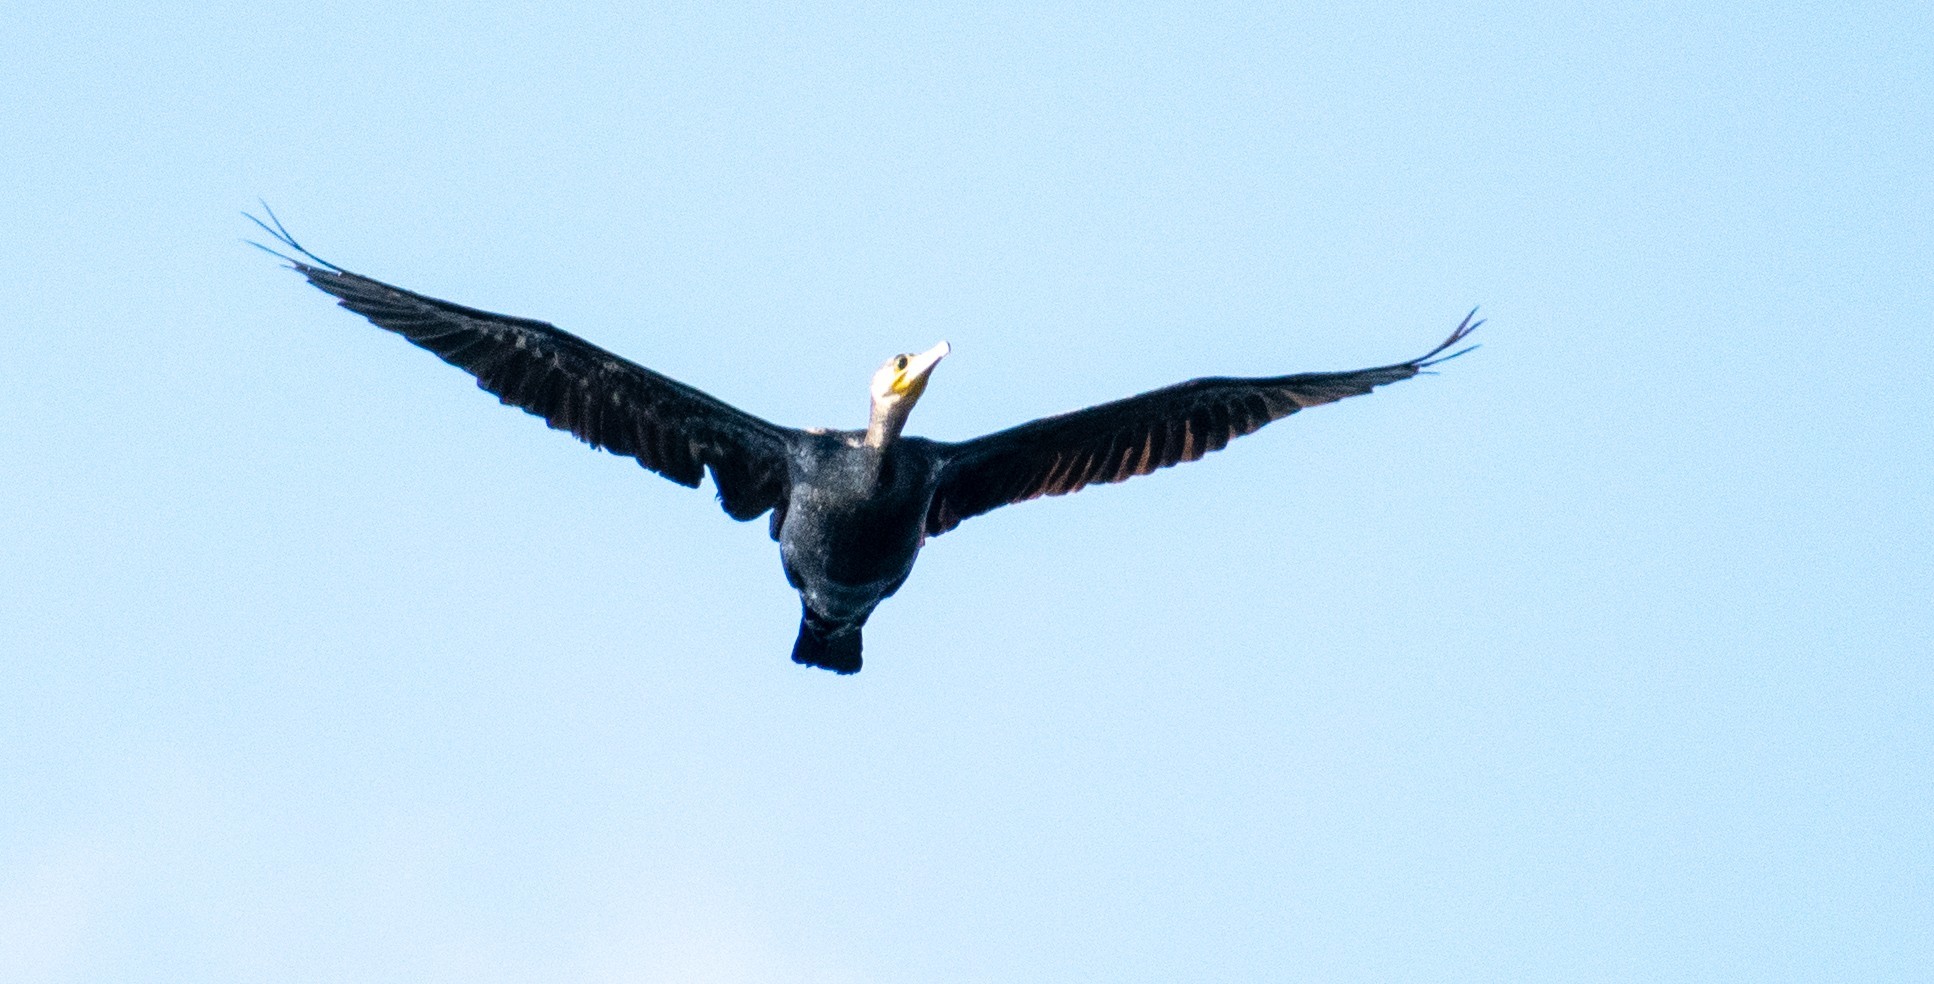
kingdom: Animalia
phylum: Chordata
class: Aves
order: Suliformes
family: Phalacrocoracidae
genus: Phalacrocorax
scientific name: Phalacrocorax carbo
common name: Great cormorant
